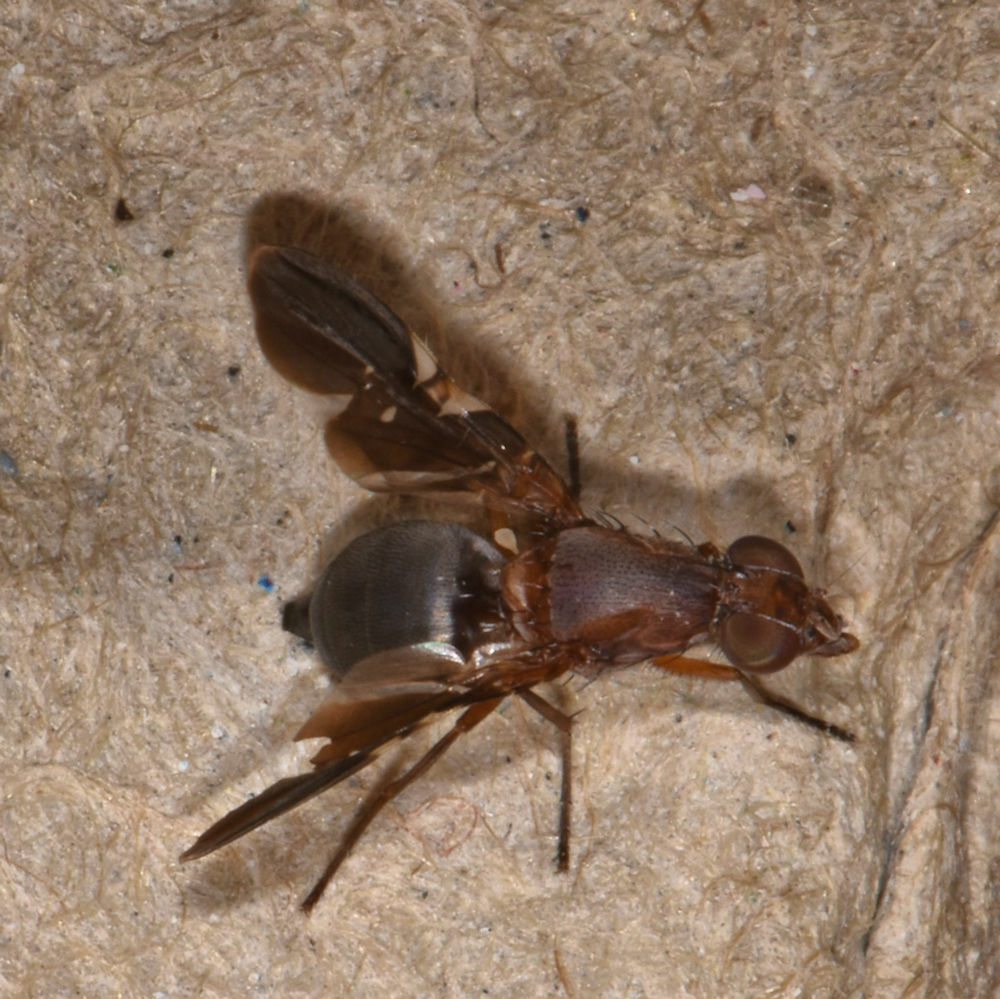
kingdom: Animalia
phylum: Arthropoda
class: Insecta
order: Diptera
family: Ulidiidae
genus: Delphinia
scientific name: Delphinia picta
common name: Common picture-winged fly
